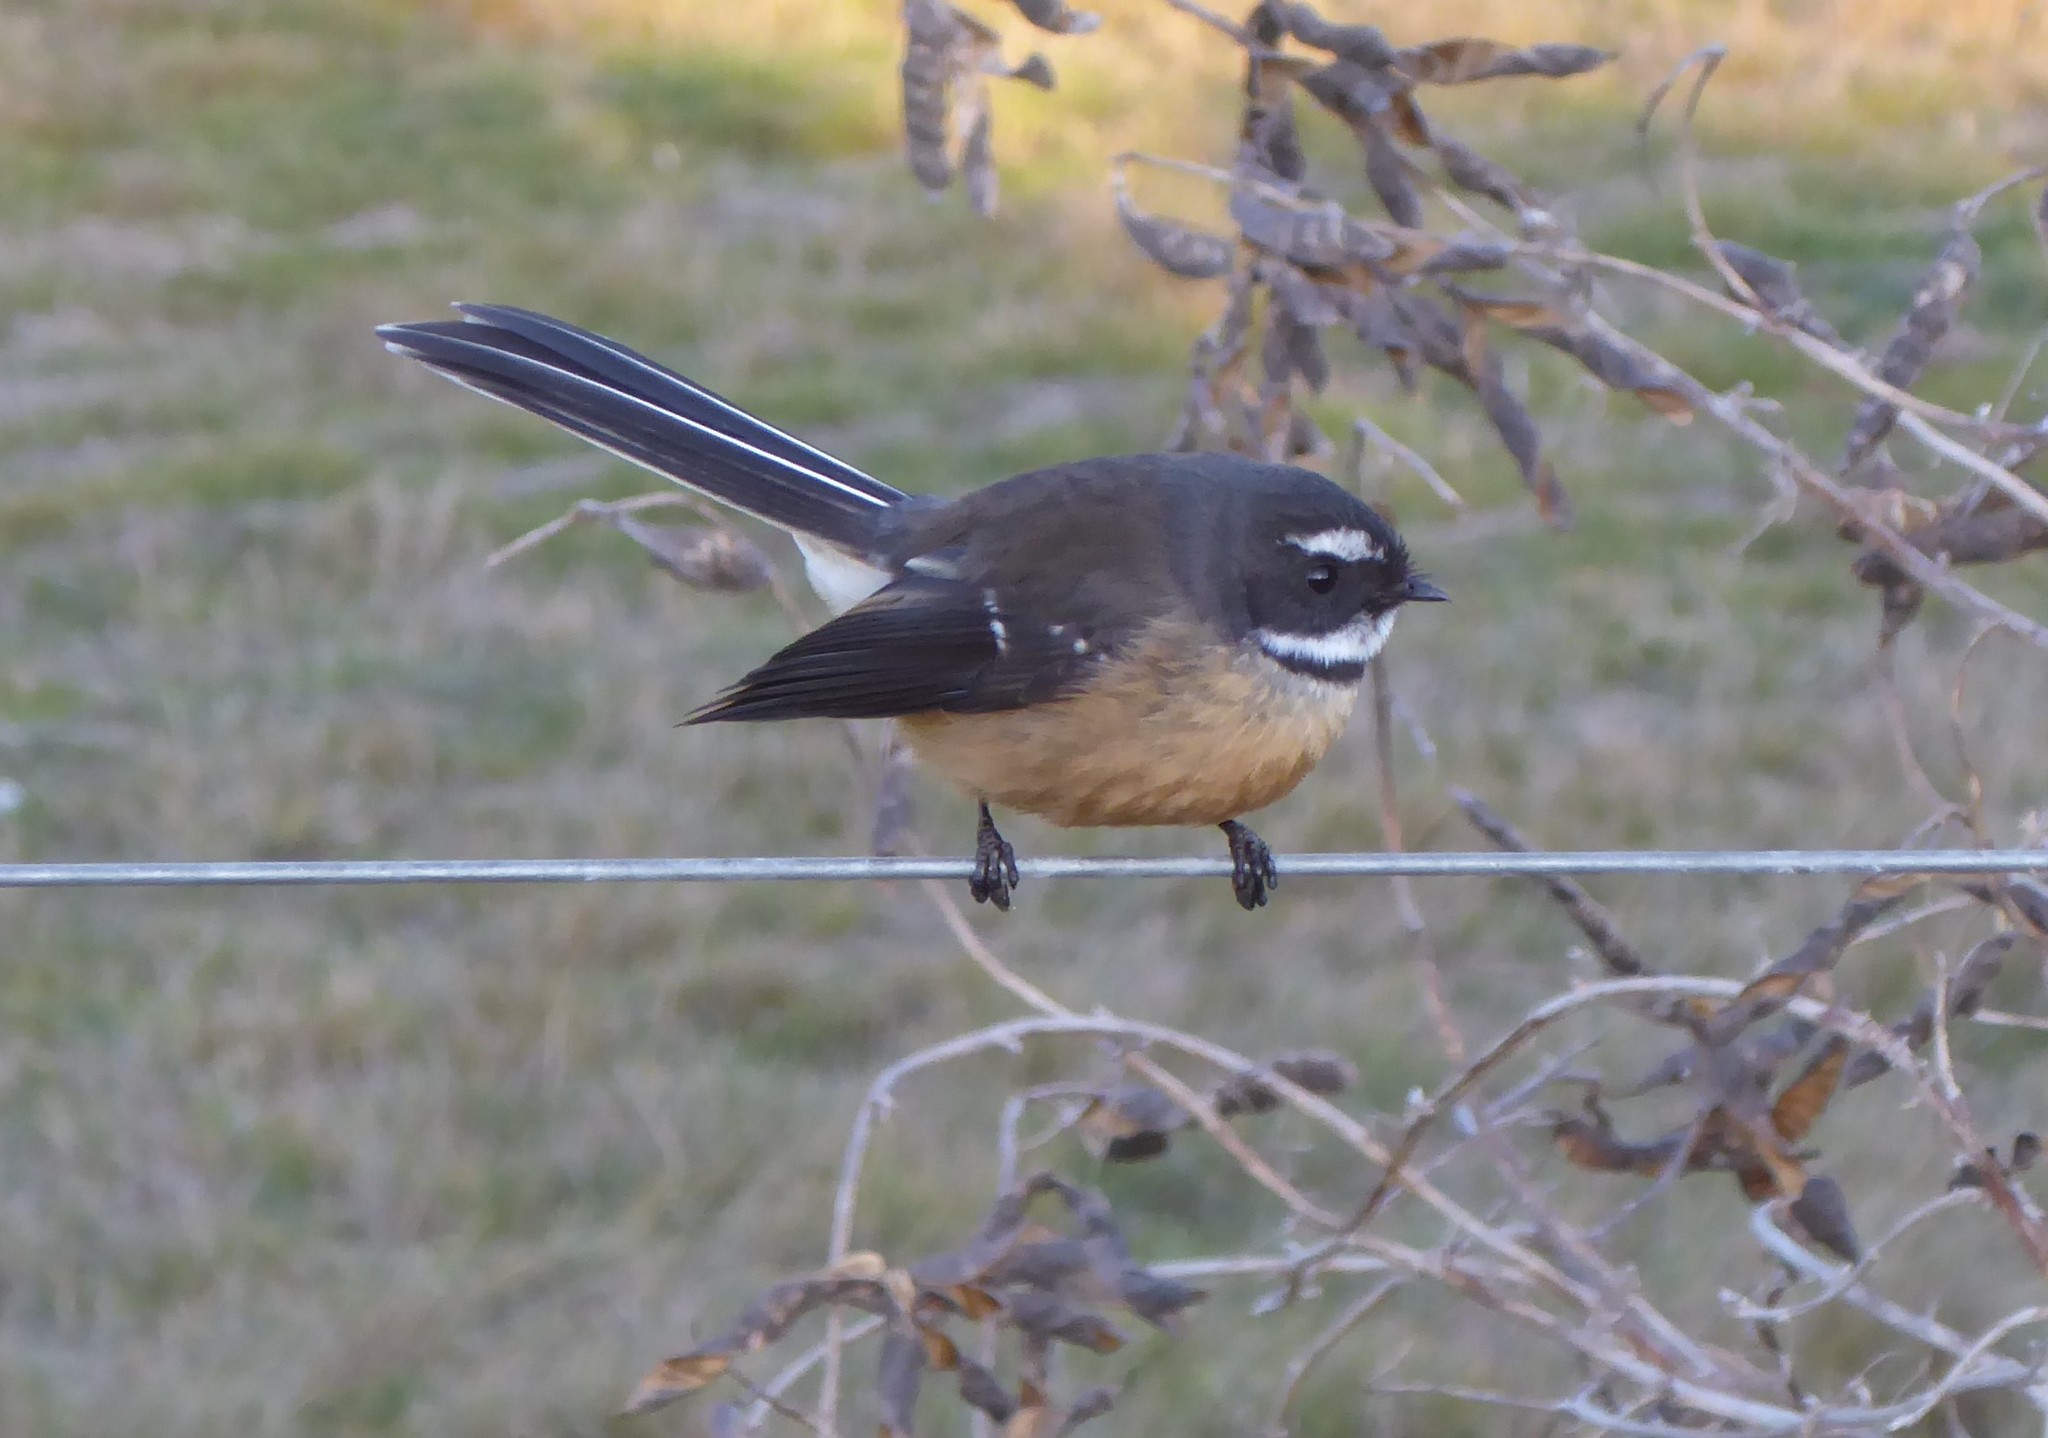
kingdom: Animalia
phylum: Chordata
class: Aves
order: Passeriformes
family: Rhipiduridae
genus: Rhipidura
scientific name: Rhipidura fuliginosa
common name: New zealand fantail
